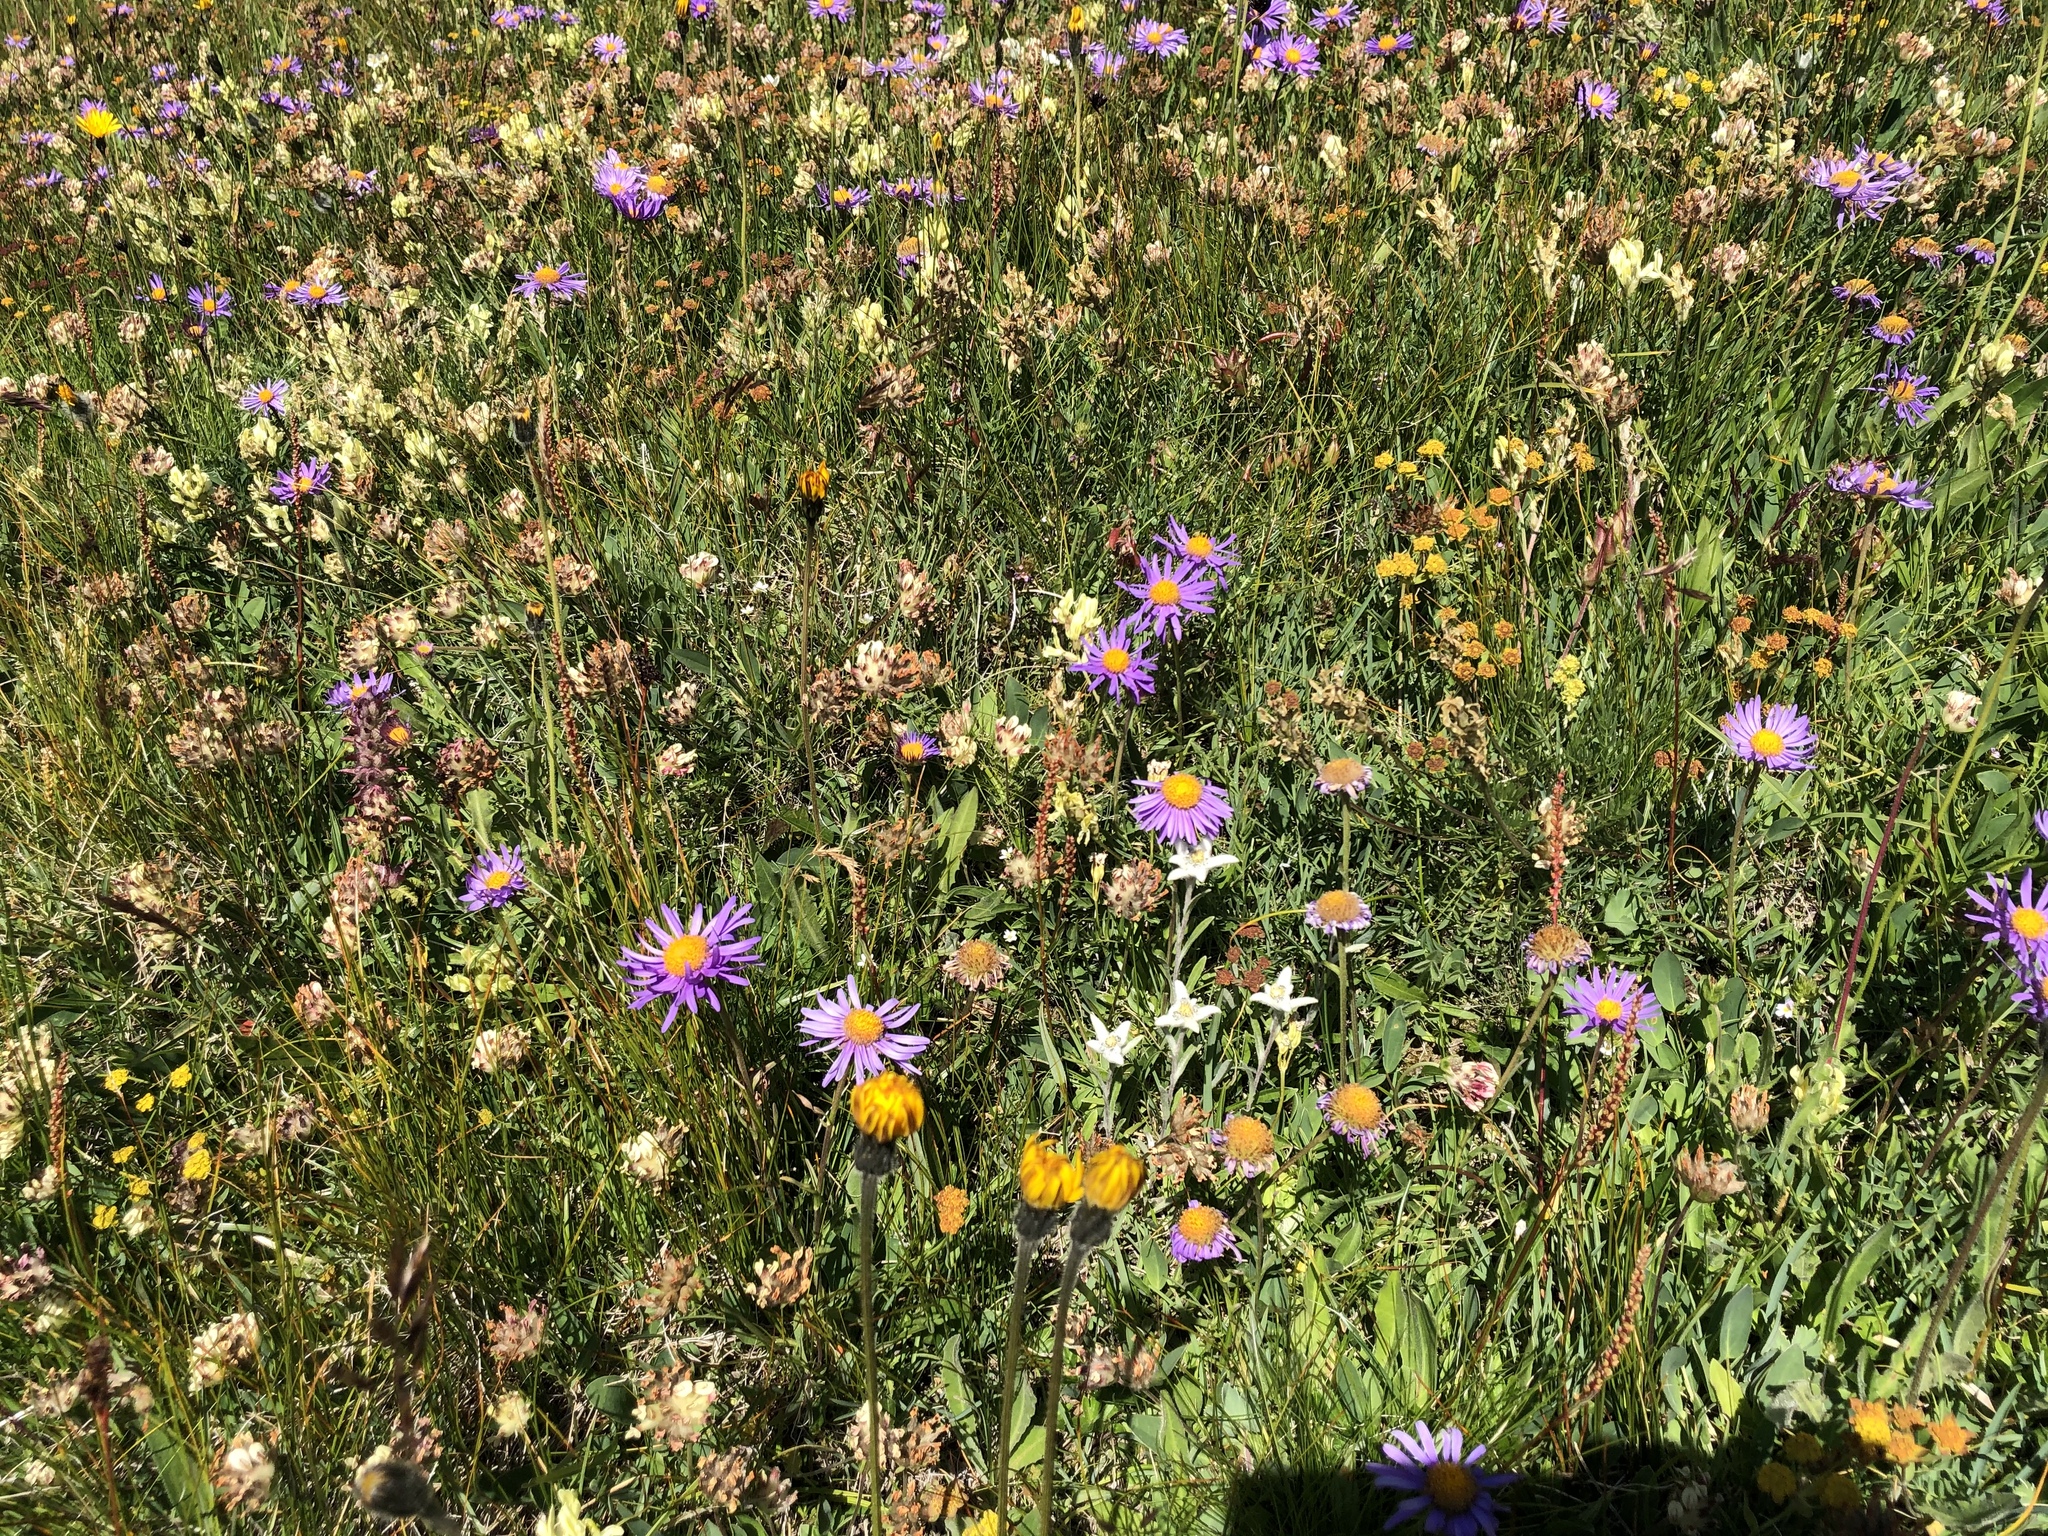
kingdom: Plantae
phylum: Tracheophyta
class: Magnoliopsida
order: Asterales
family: Asteraceae
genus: Leontopodium
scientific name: Leontopodium nivale
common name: Edelweiss
